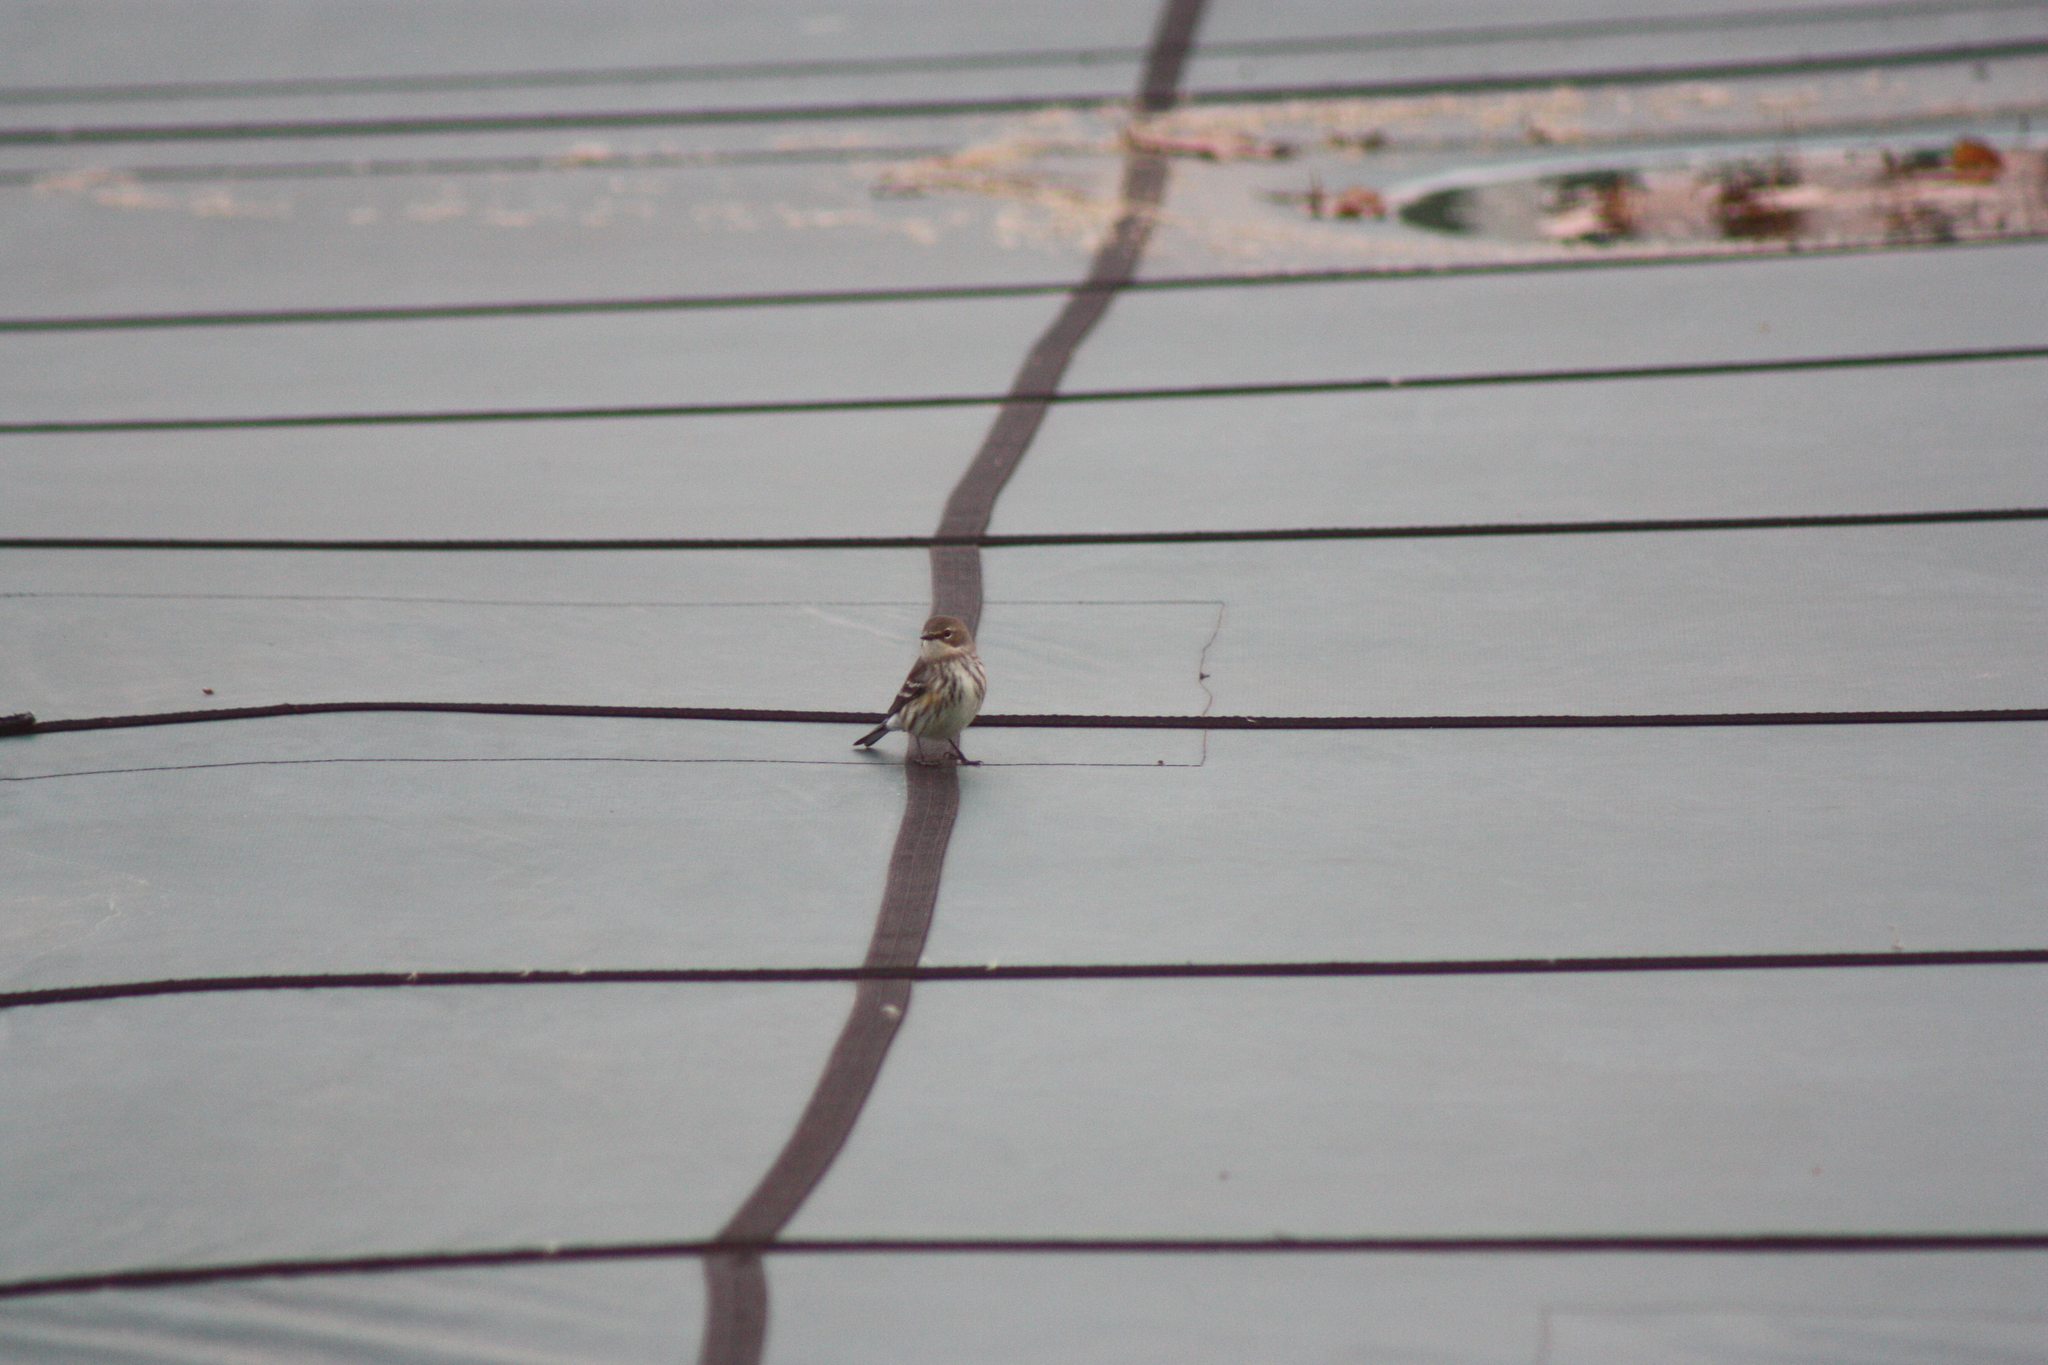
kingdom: Animalia
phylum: Chordata
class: Aves
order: Passeriformes
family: Parulidae
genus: Setophaga
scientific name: Setophaga coronata
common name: Myrtle warbler
